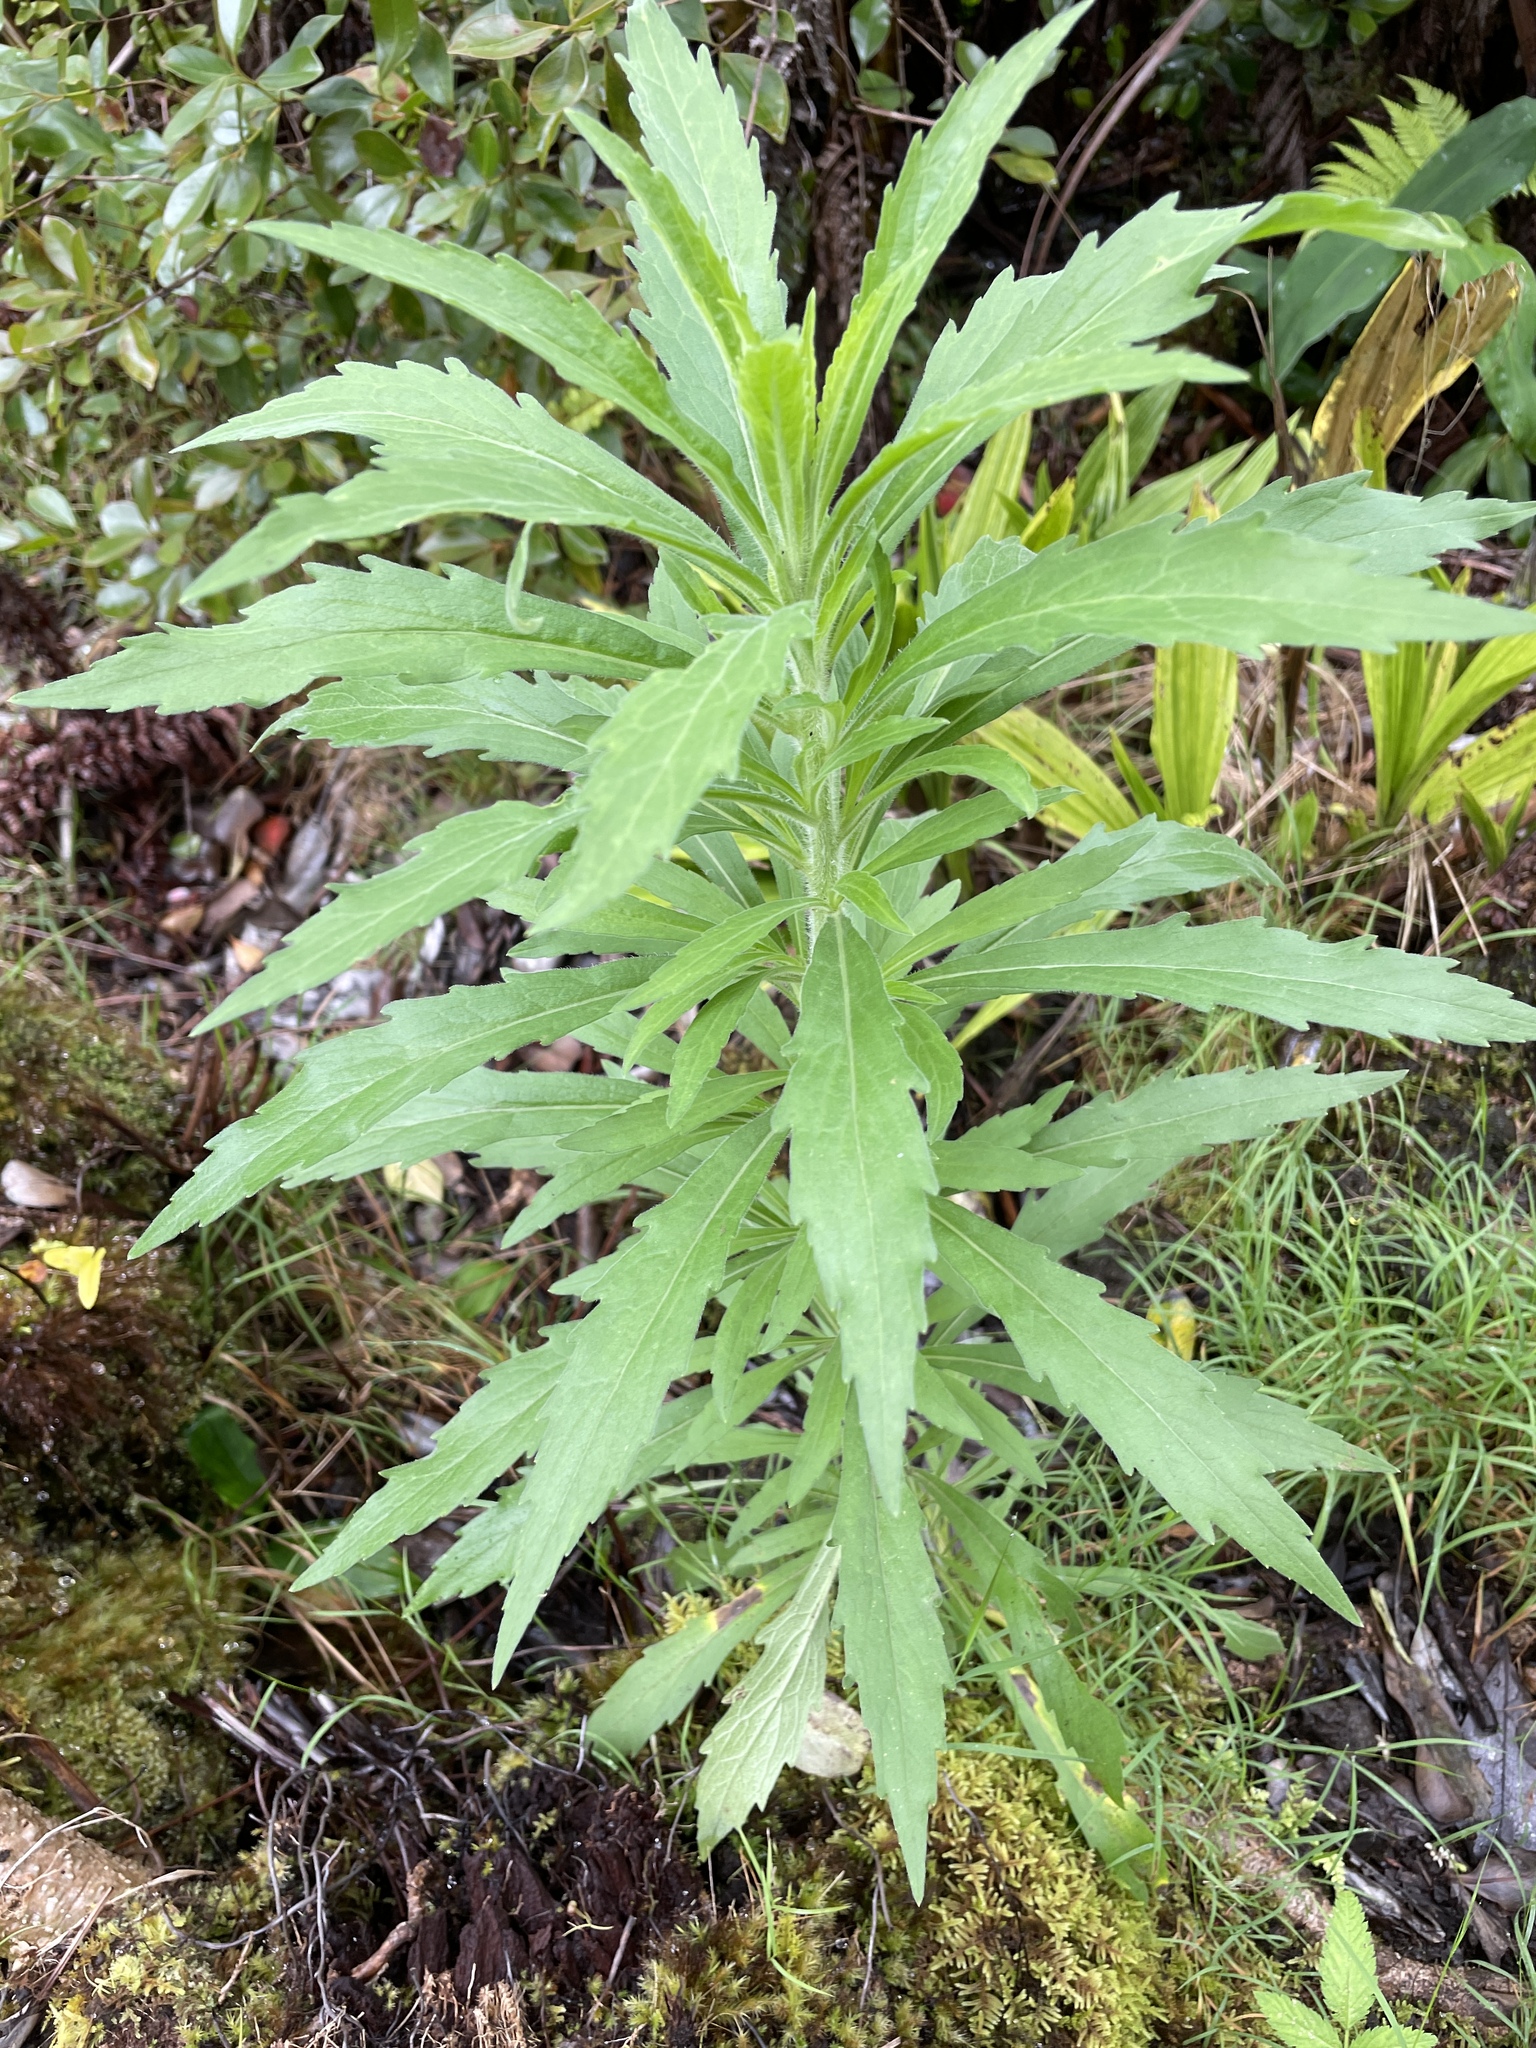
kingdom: Plantae
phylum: Tracheophyta
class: Magnoliopsida
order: Asterales
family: Asteraceae
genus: Erigeron
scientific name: Erigeron sumatrensis
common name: Daisy
